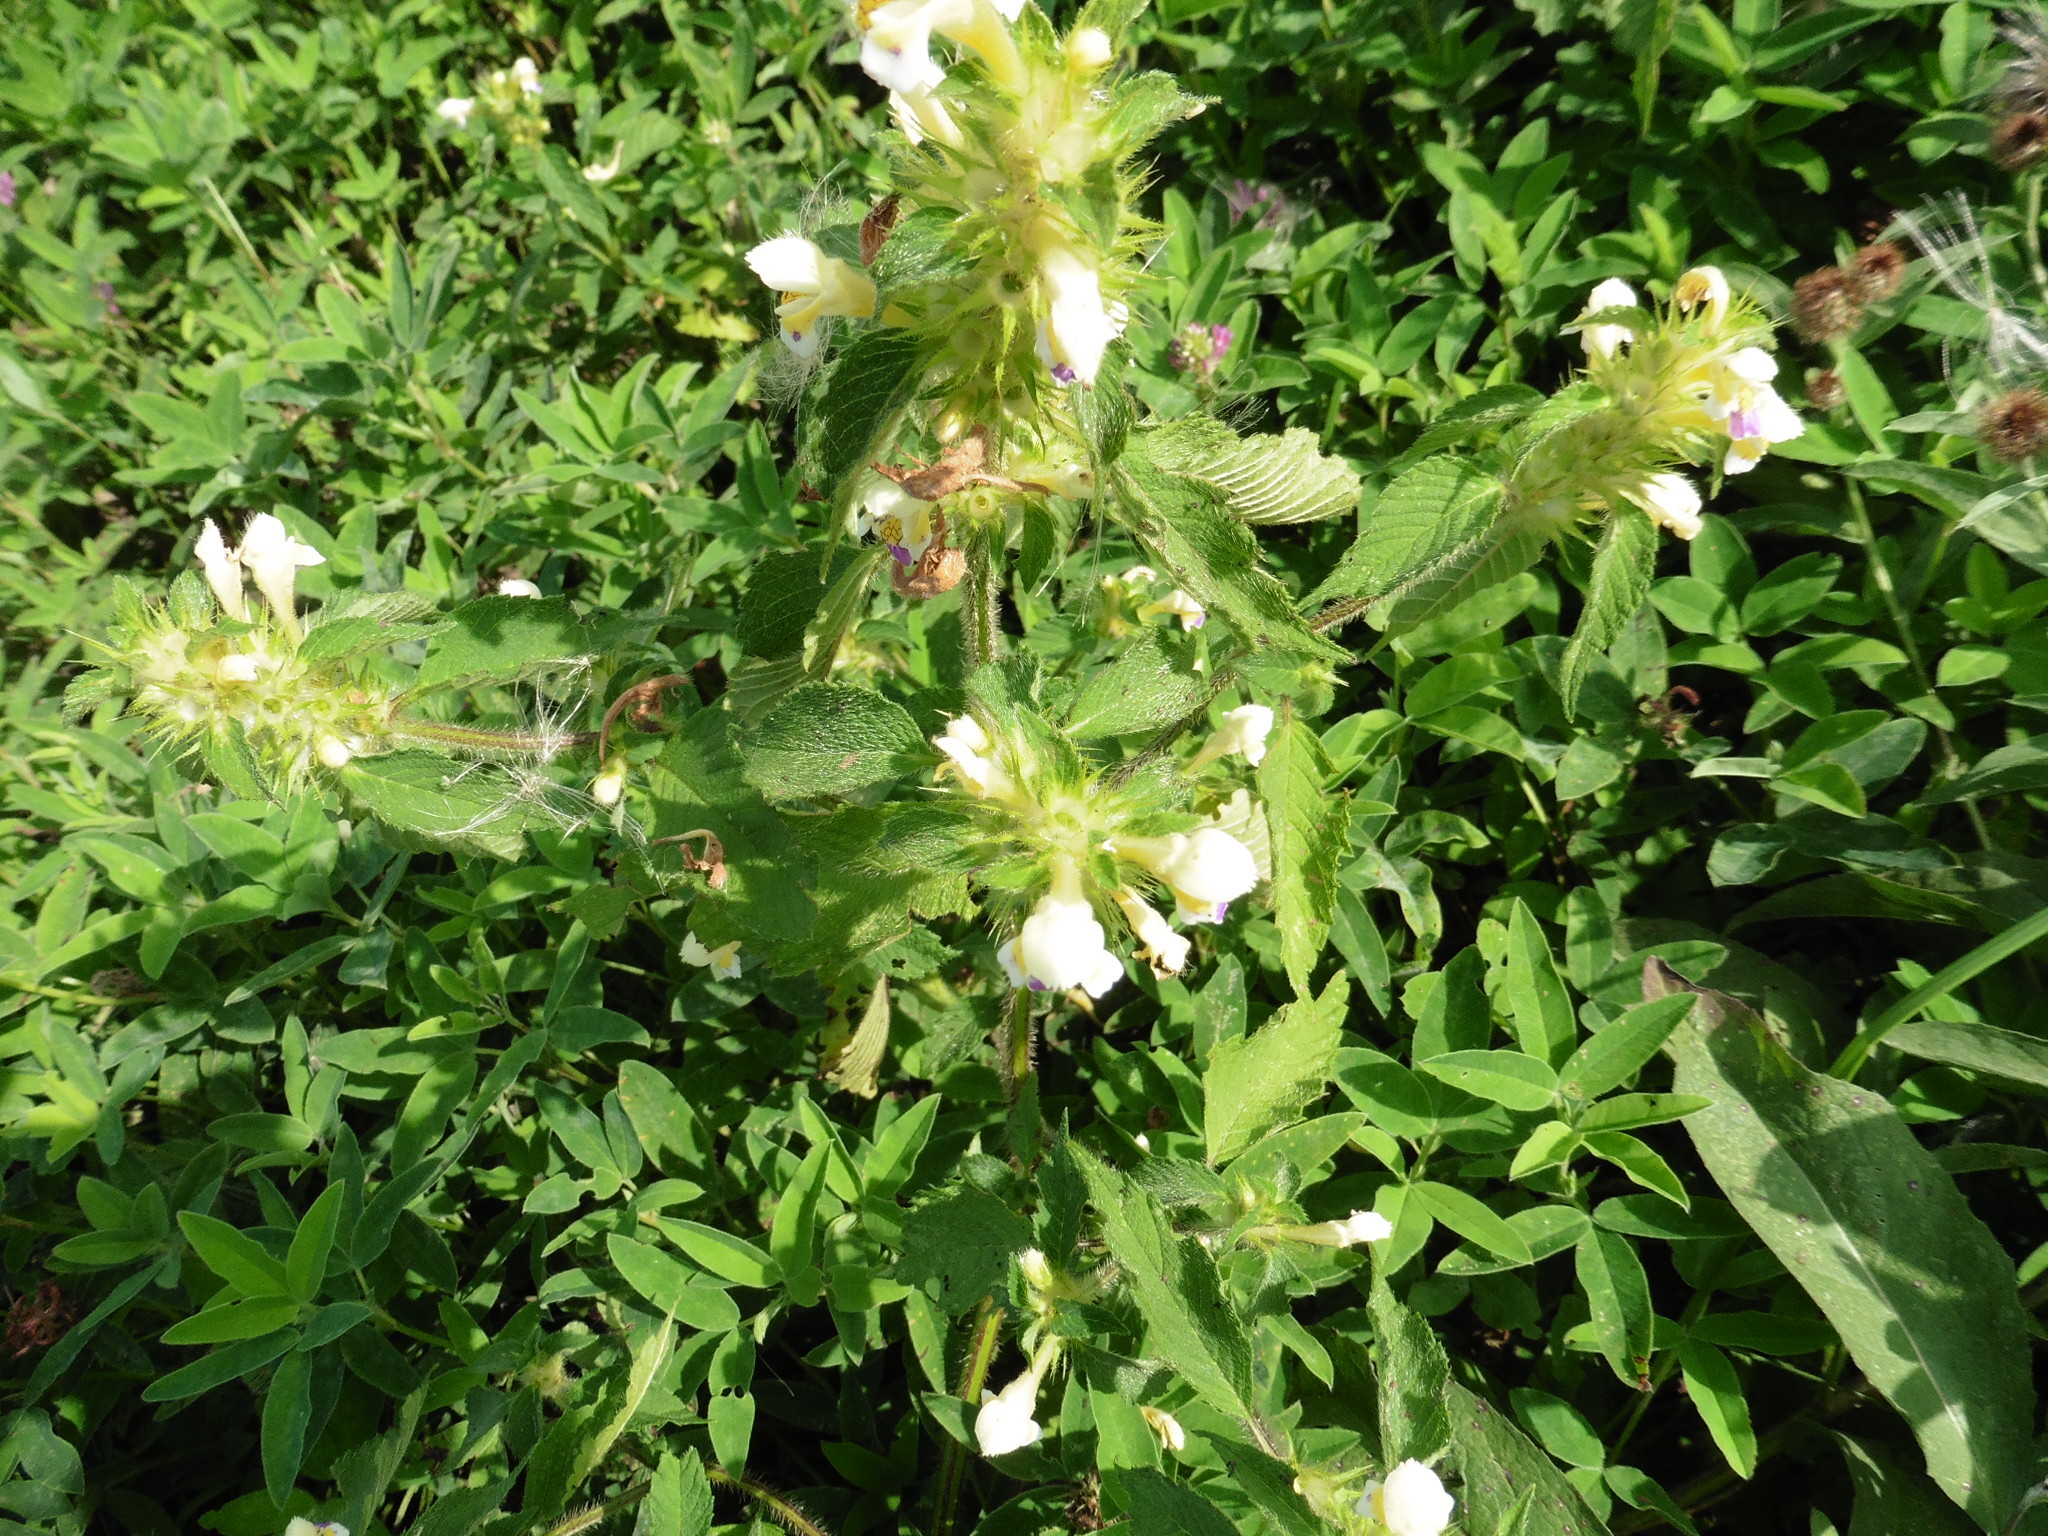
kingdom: Plantae
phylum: Tracheophyta
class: Magnoliopsida
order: Lamiales
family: Lamiaceae
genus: Galeopsis
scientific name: Galeopsis speciosa
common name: Large-flowered hemp-nettle
